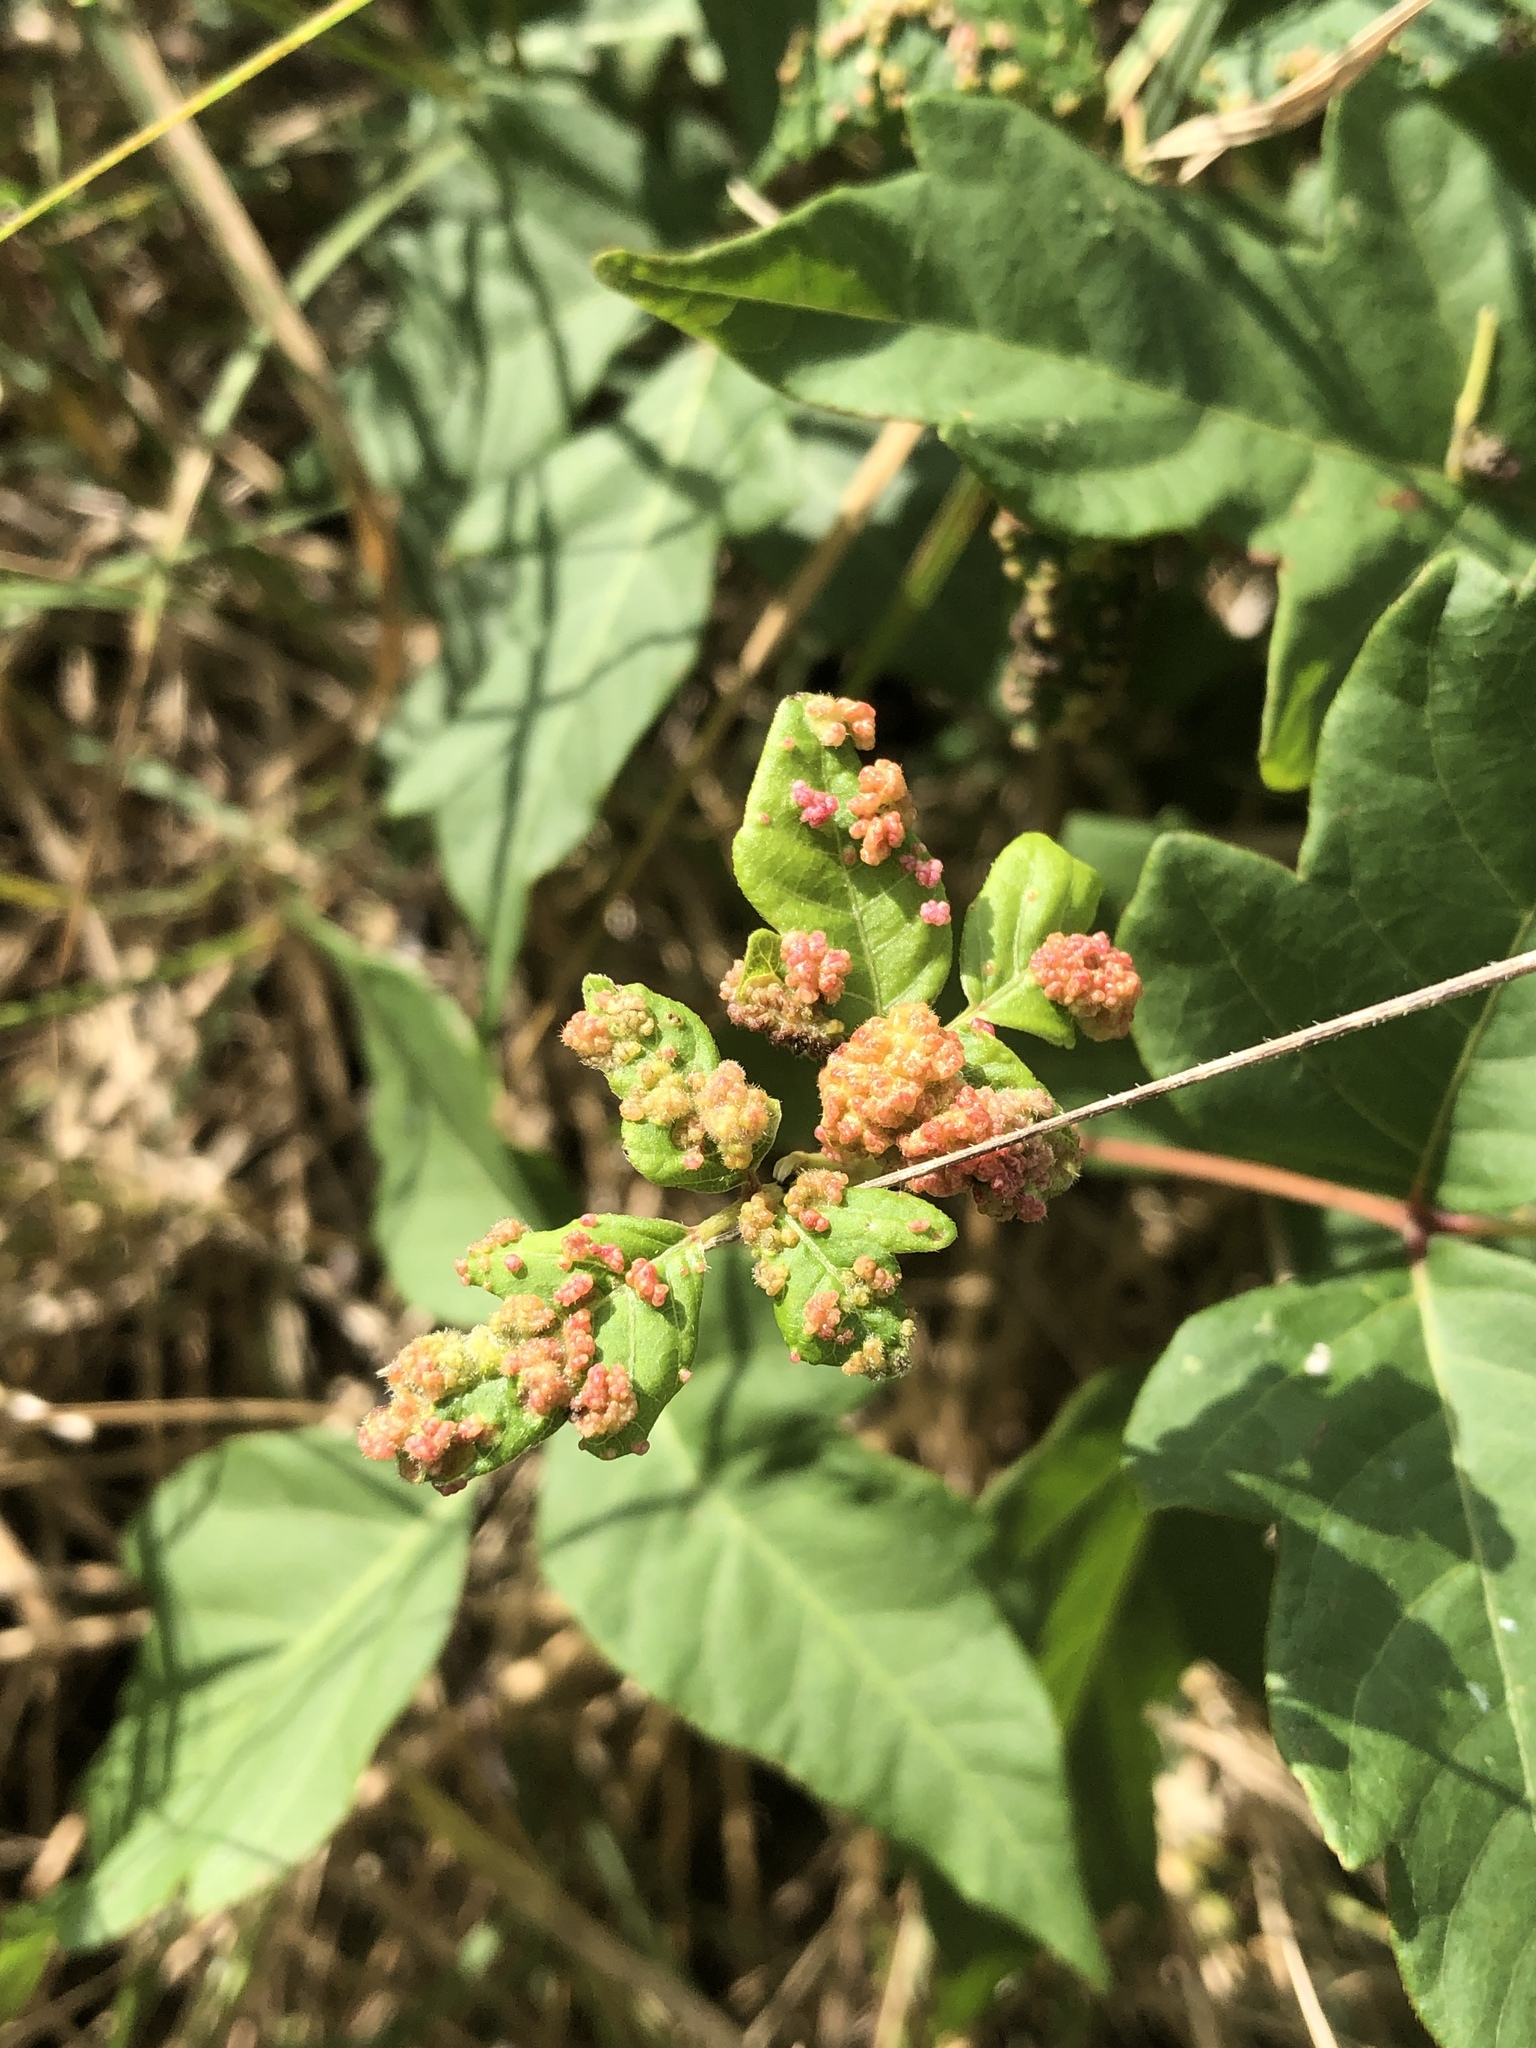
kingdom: Animalia
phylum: Arthropoda
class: Arachnida
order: Trombidiformes
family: Eriophyidae
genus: Aculops
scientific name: Aculops
